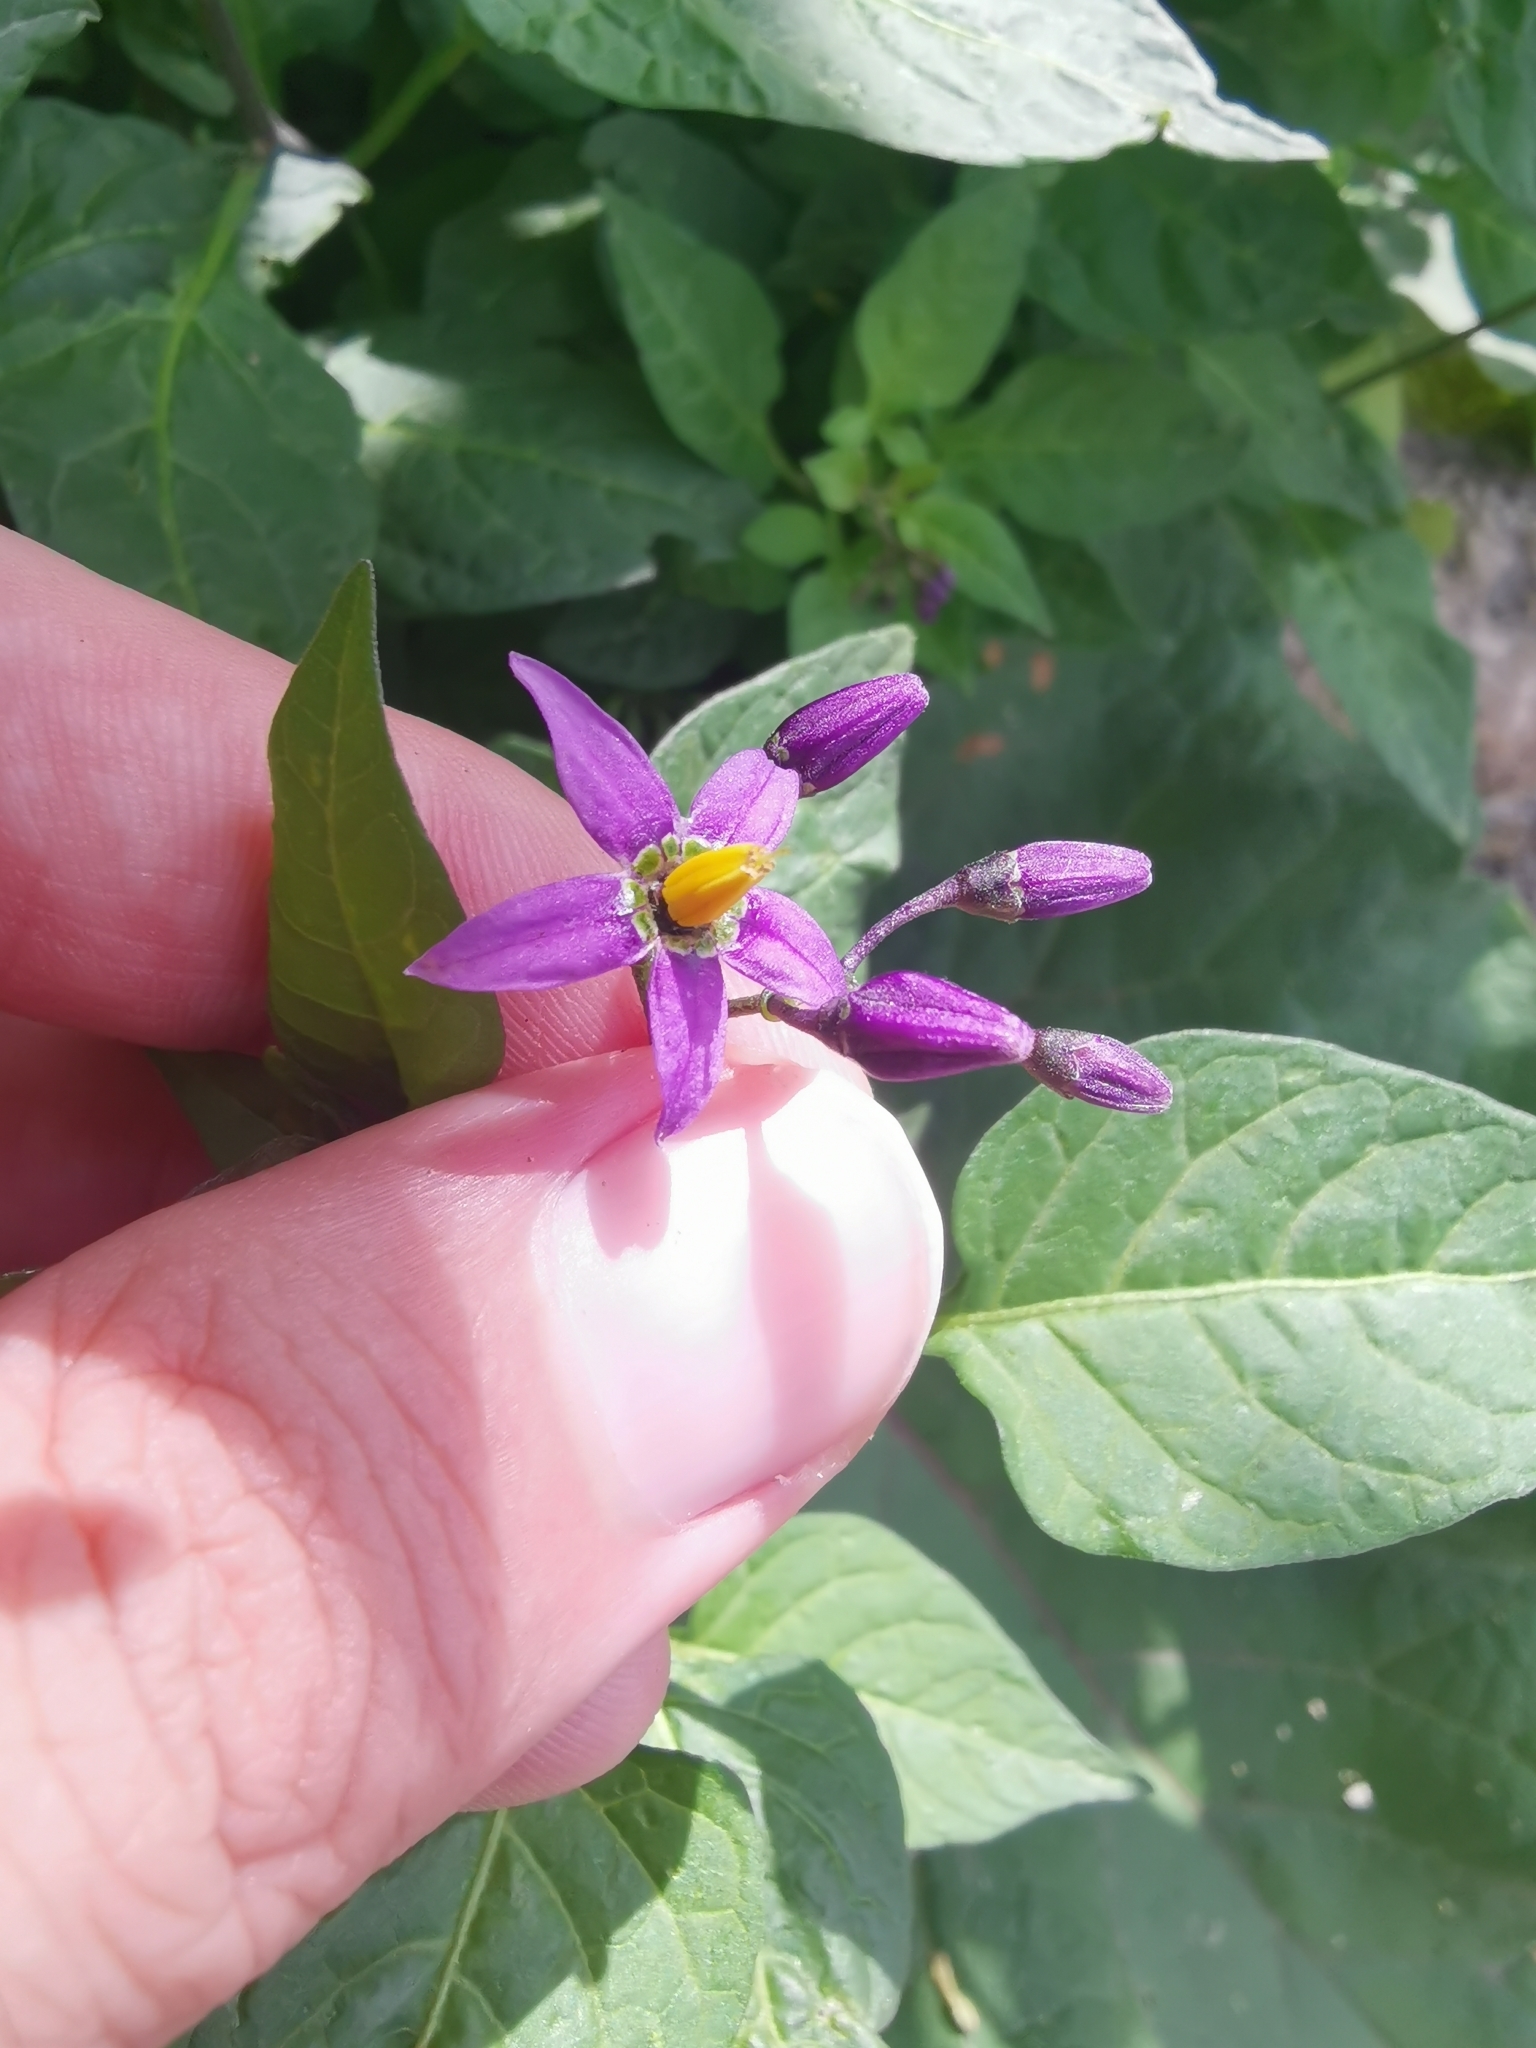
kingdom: Plantae
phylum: Tracheophyta
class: Magnoliopsida
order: Solanales
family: Solanaceae
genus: Solanum
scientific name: Solanum dulcamara
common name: Climbing nightshade
